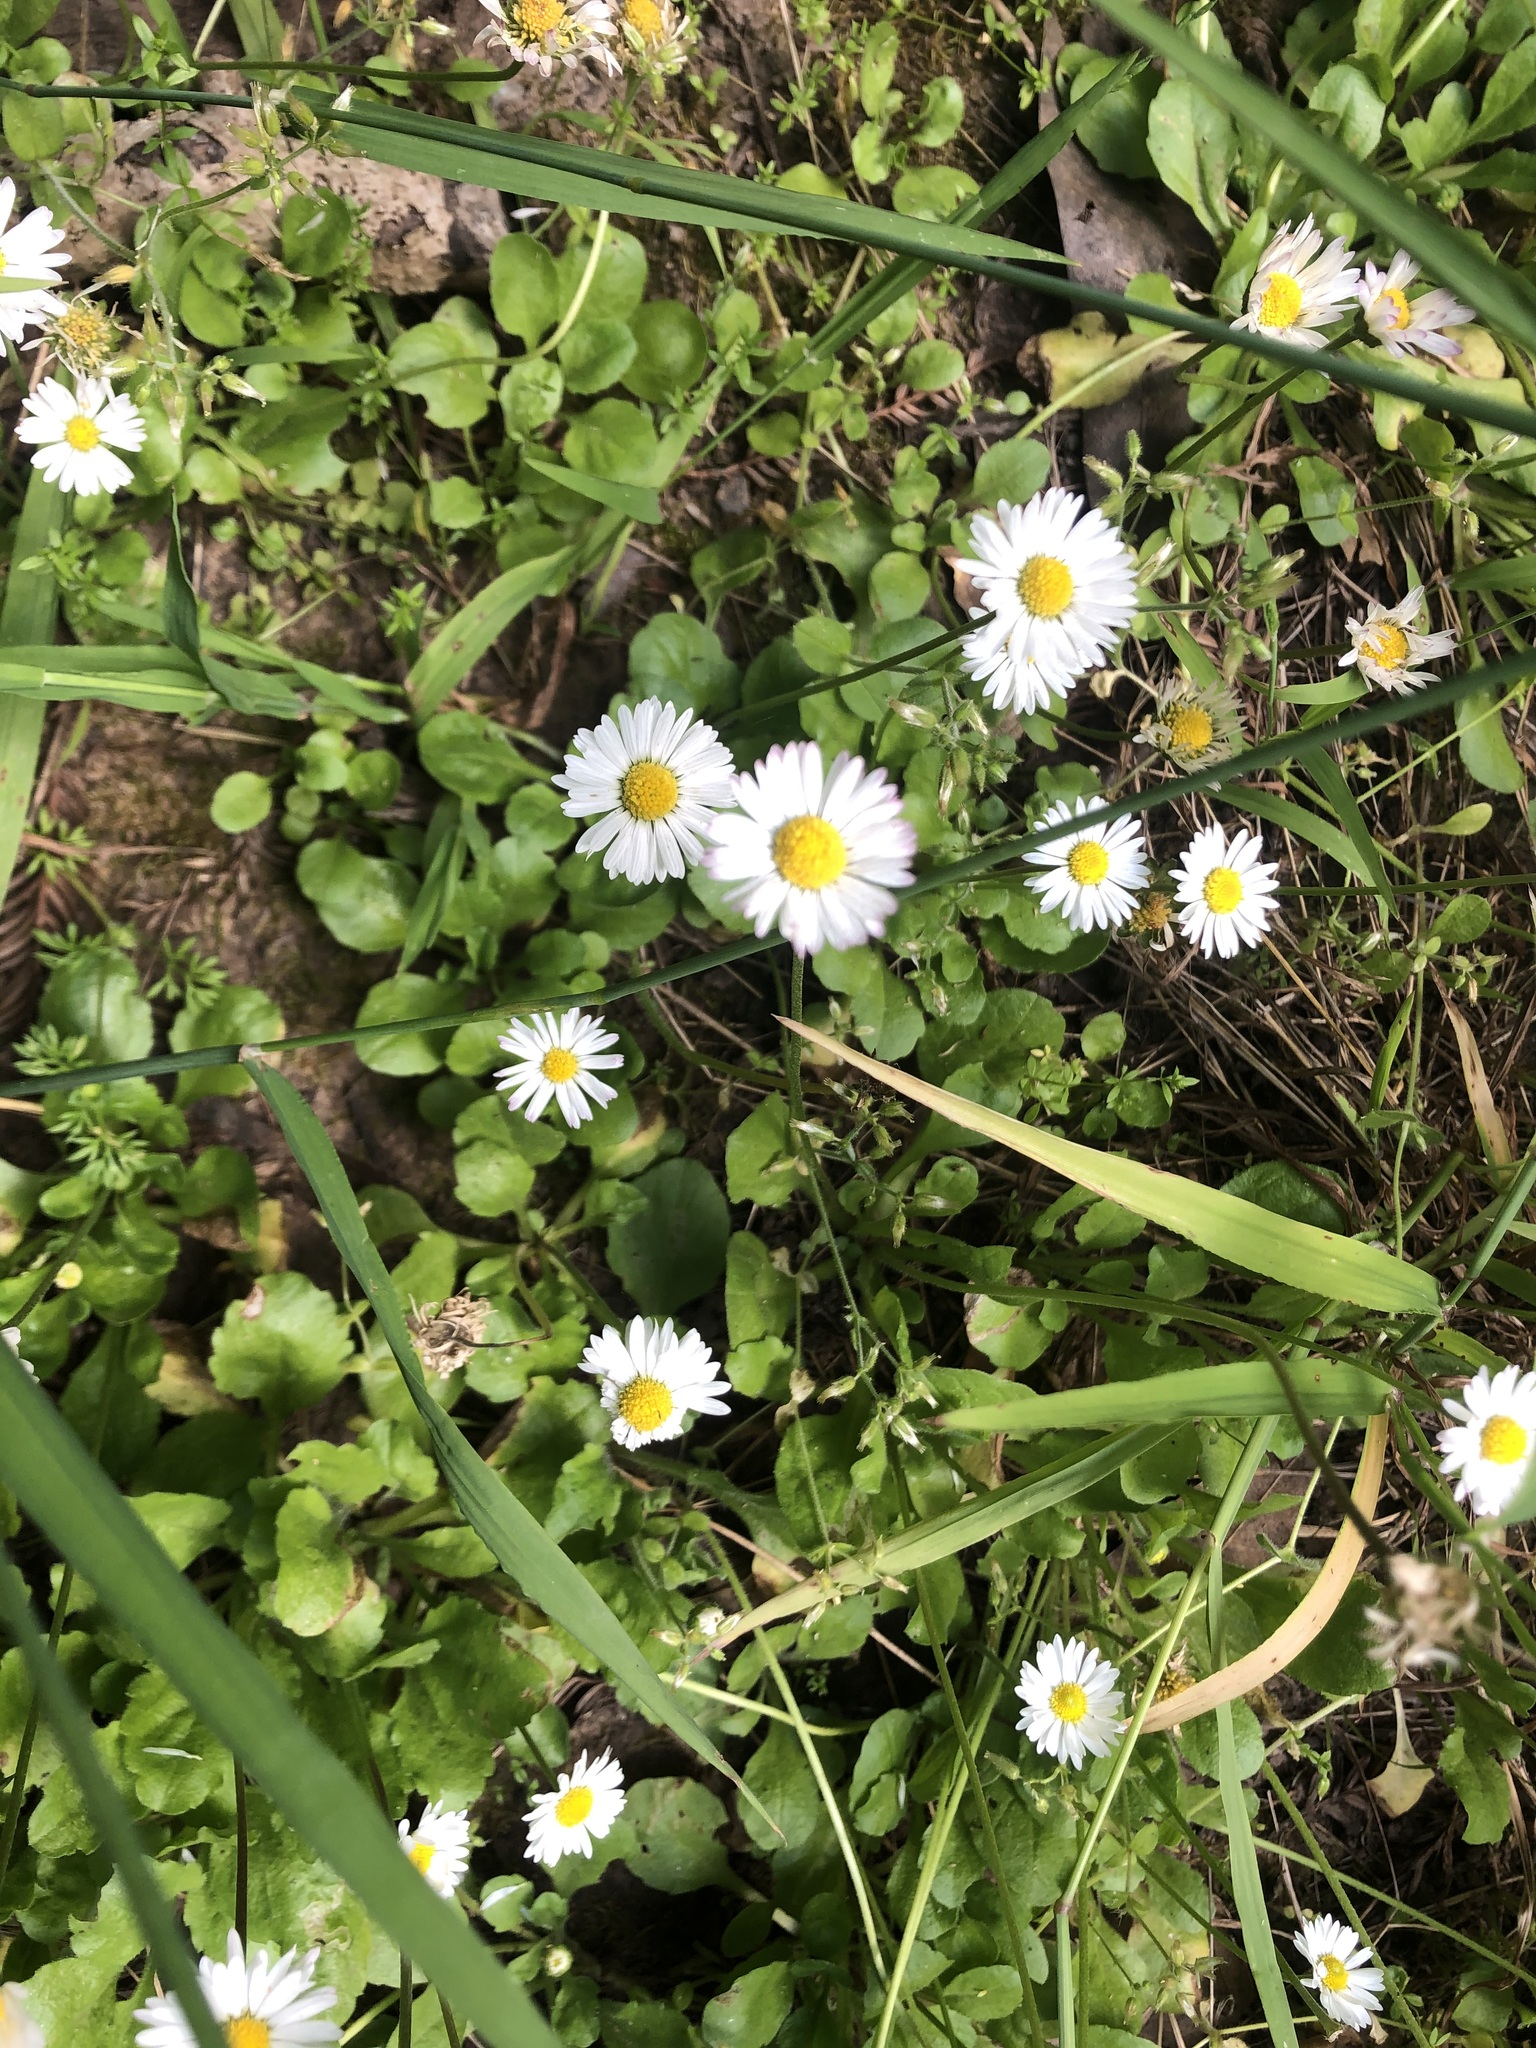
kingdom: Plantae
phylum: Tracheophyta
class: Magnoliopsida
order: Asterales
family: Asteraceae
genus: Bellis
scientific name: Bellis perennis
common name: Lawndaisy
